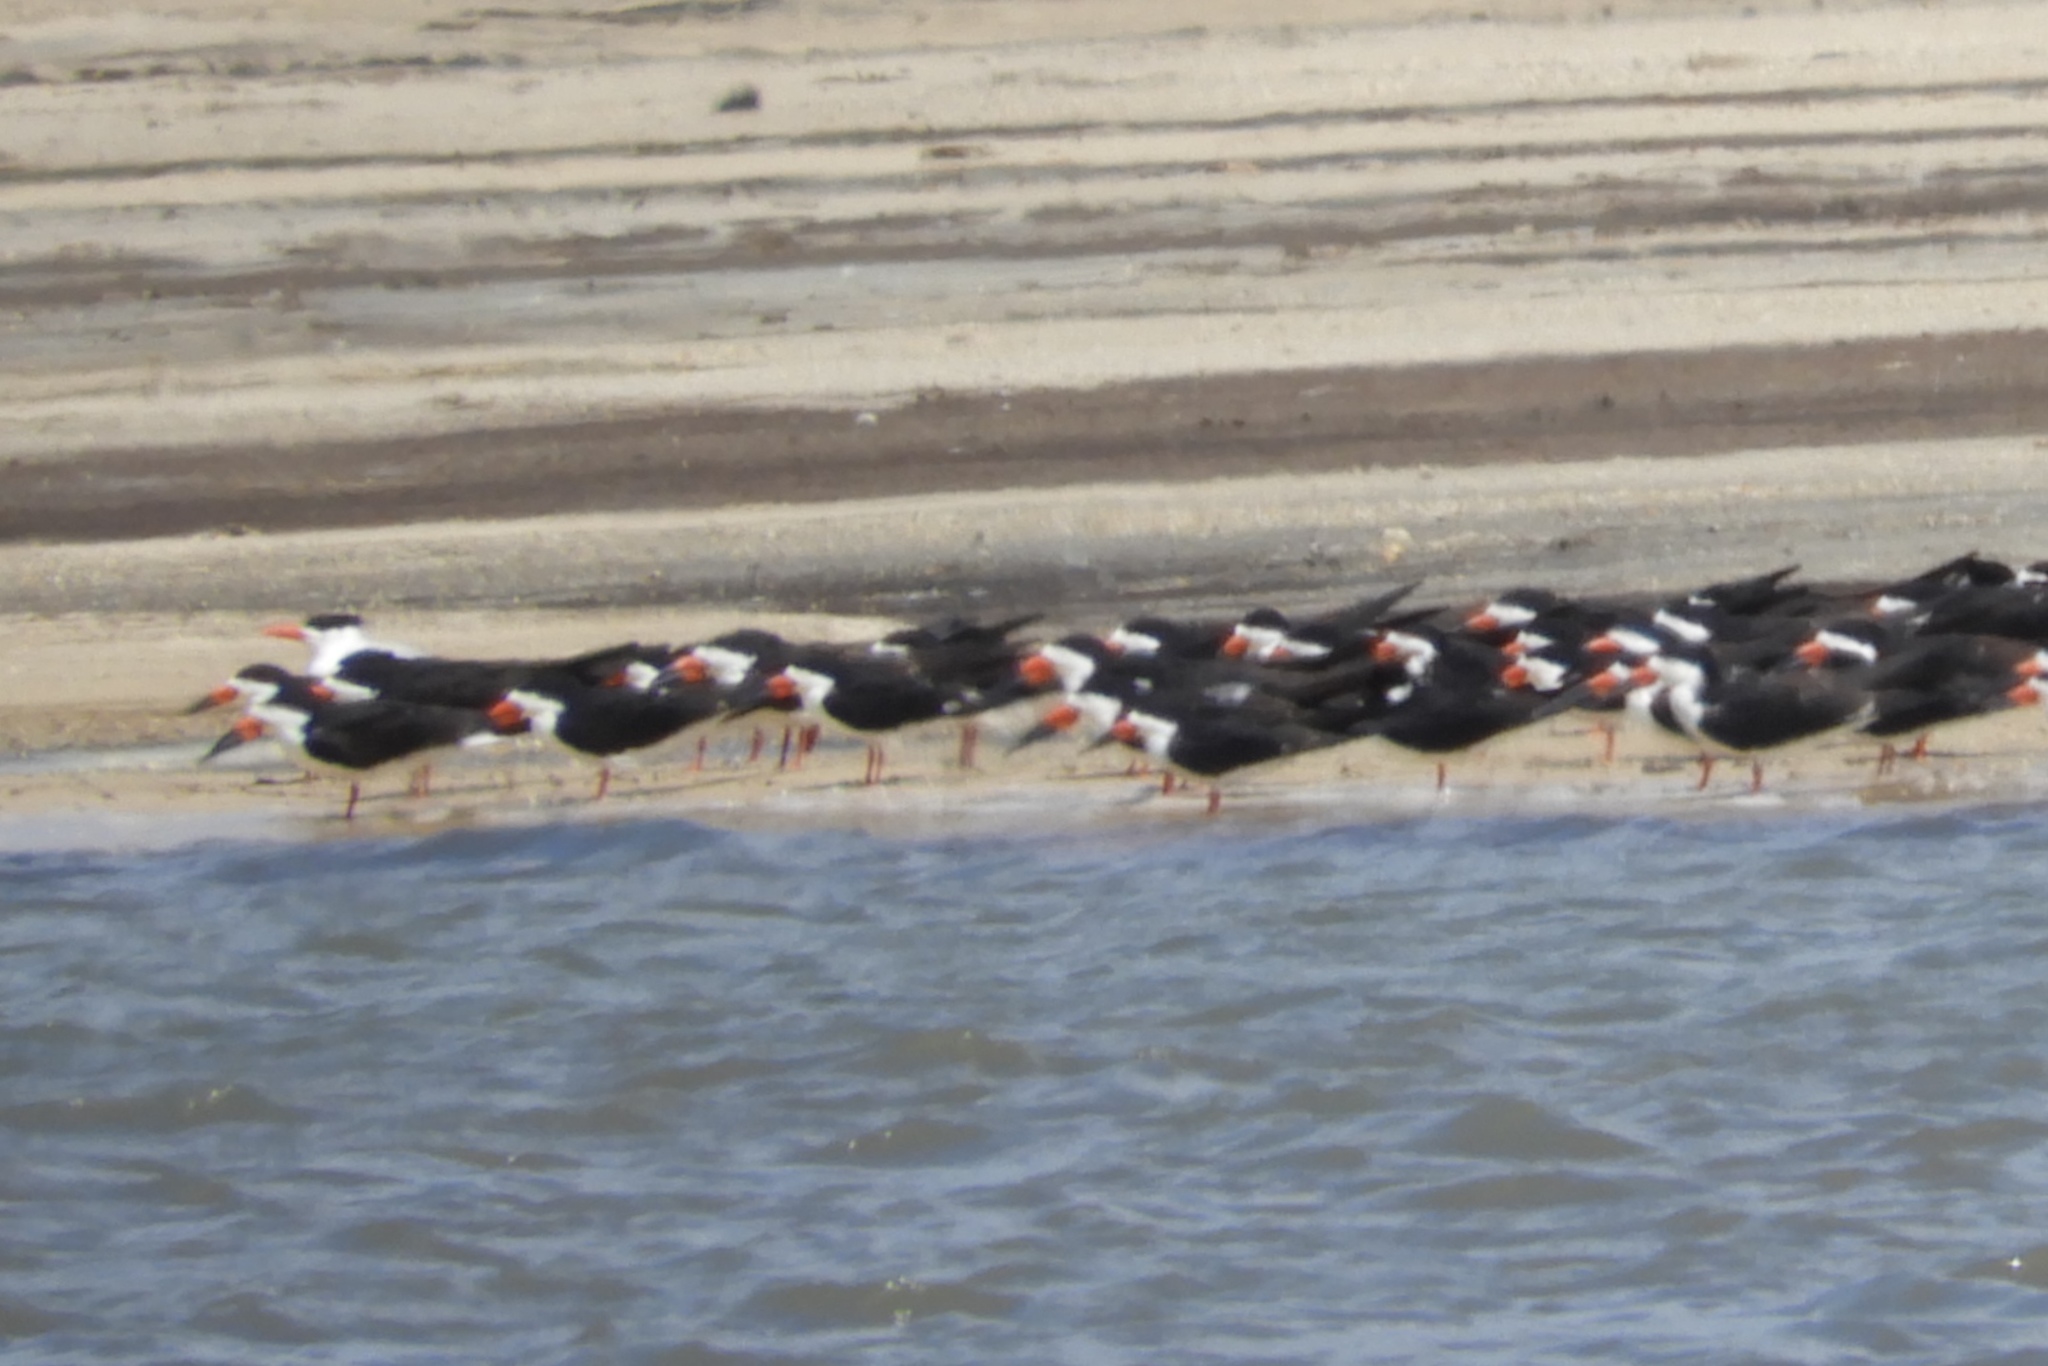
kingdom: Animalia
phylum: Chordata
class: Aves
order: Charadriiformes
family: Laridae
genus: Rynchops
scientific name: Rynchops niger
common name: Black skimmer
